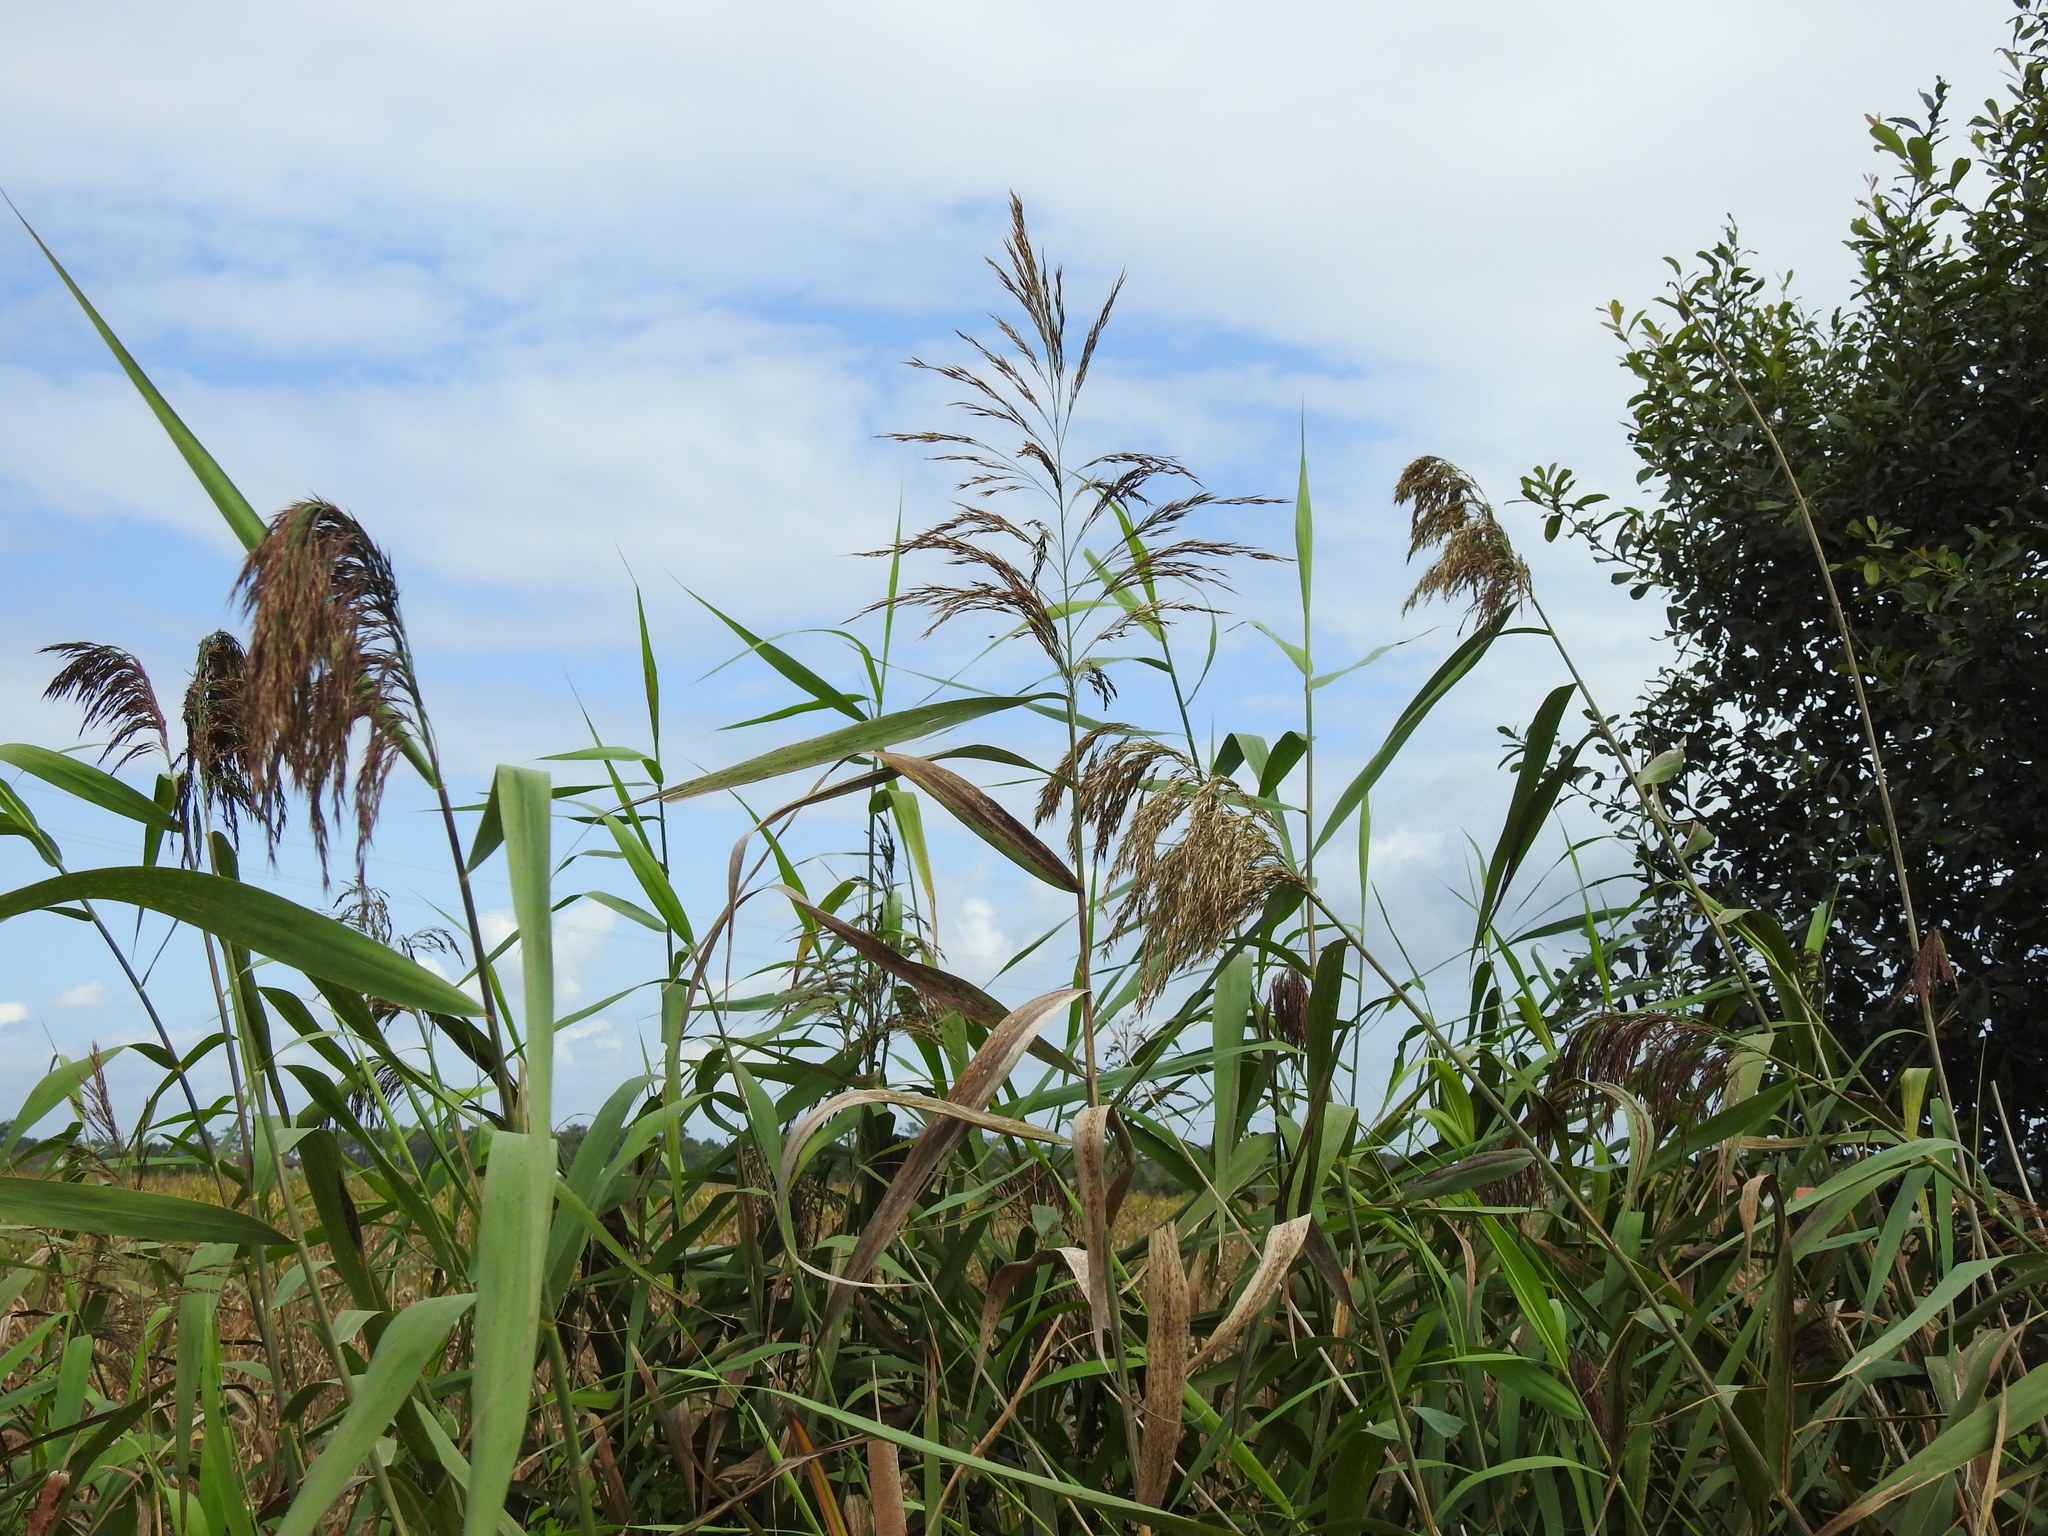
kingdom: Plantae
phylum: Tracheophyta
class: Liliopsida
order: Poales
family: Poaceae
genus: Phragmites
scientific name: Phragmites australis
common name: Common reed
